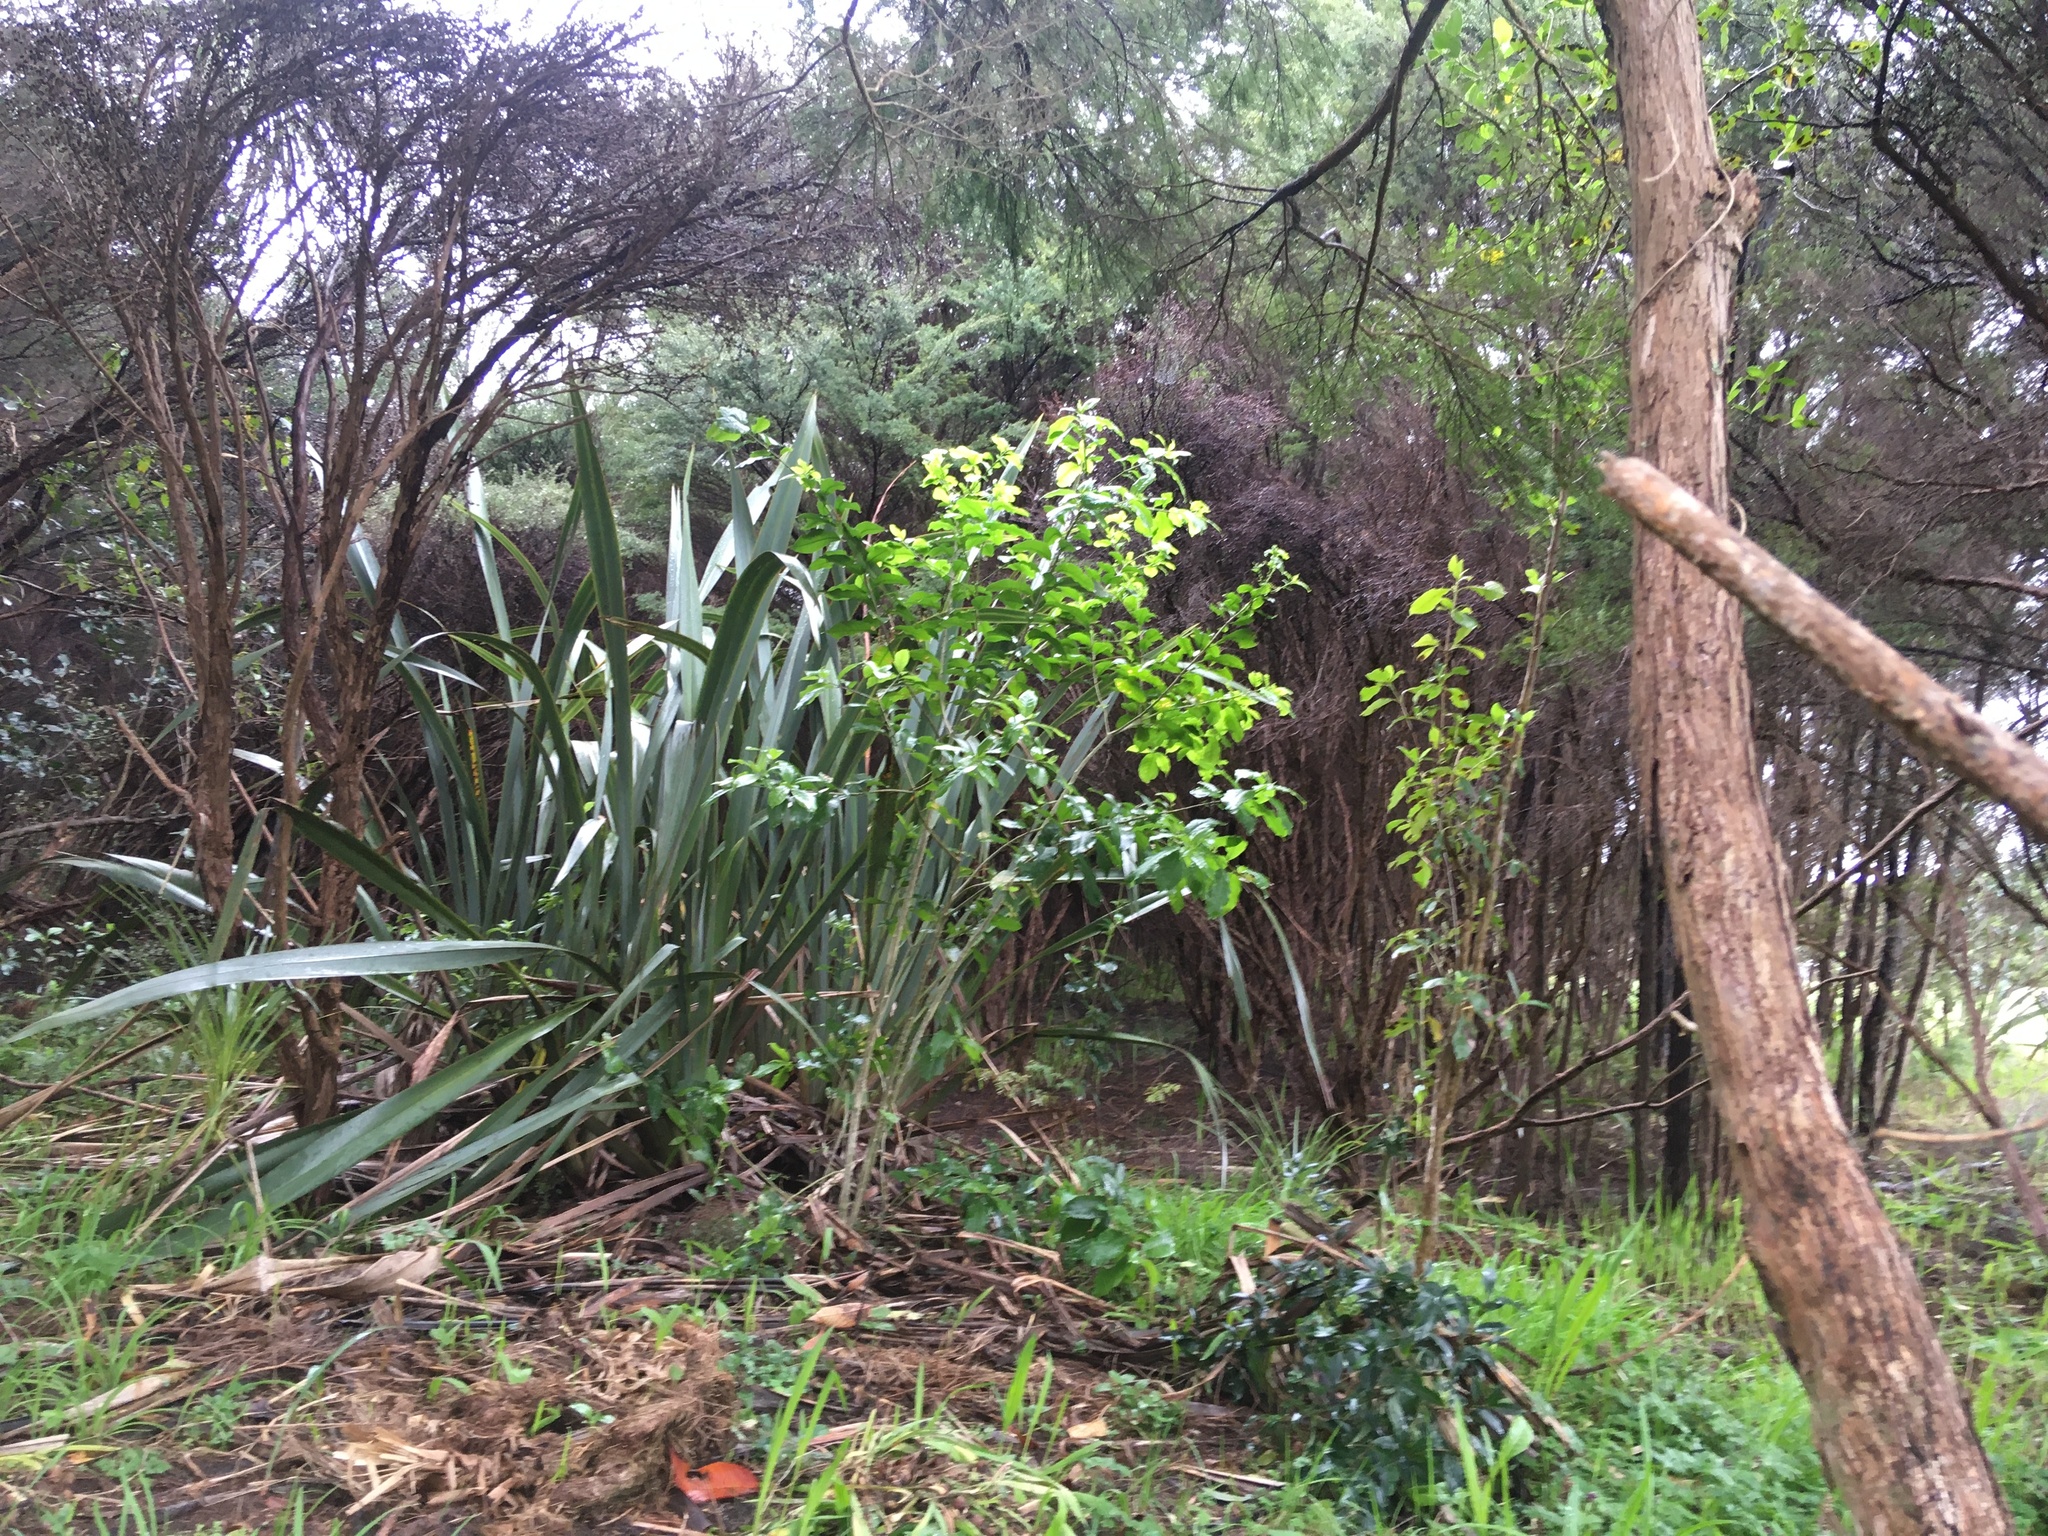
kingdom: Plantae
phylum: Tracheophyta
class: Liliopsida
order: Asparagales
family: Asphodelaceae
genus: Phormium
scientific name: Phormium tenax
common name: New zealand flax
